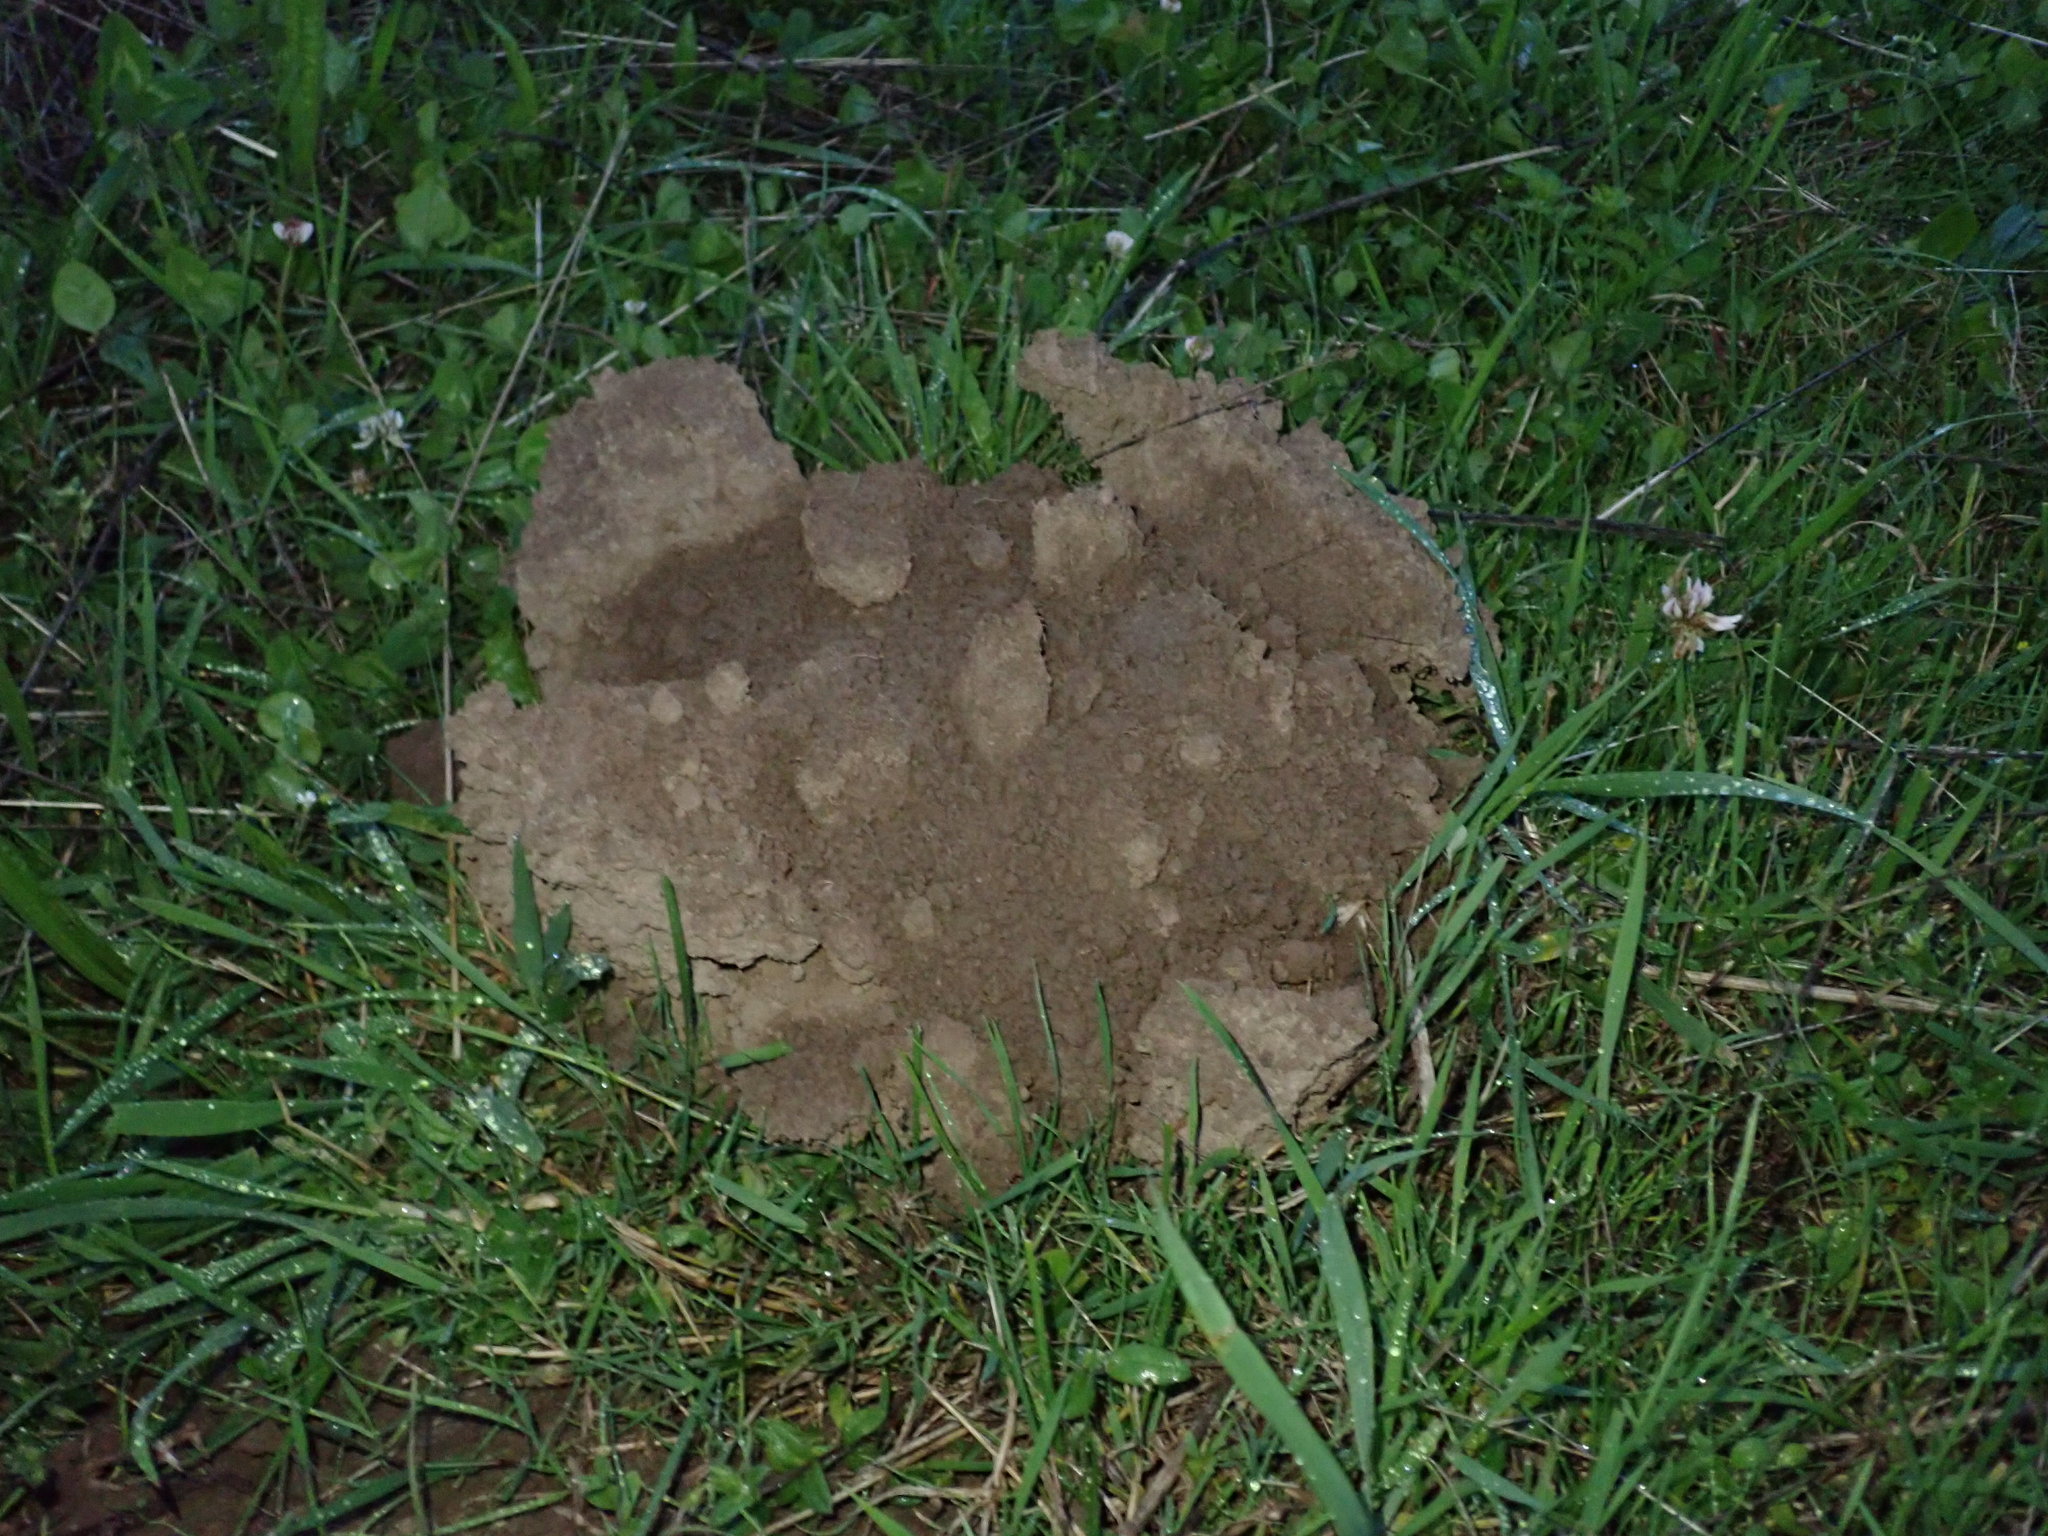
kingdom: Animalia
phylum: Chordata
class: Mammalia
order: Soricomorpha
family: Talpidae
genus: Talpa
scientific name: Talpa europaea
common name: European mole
